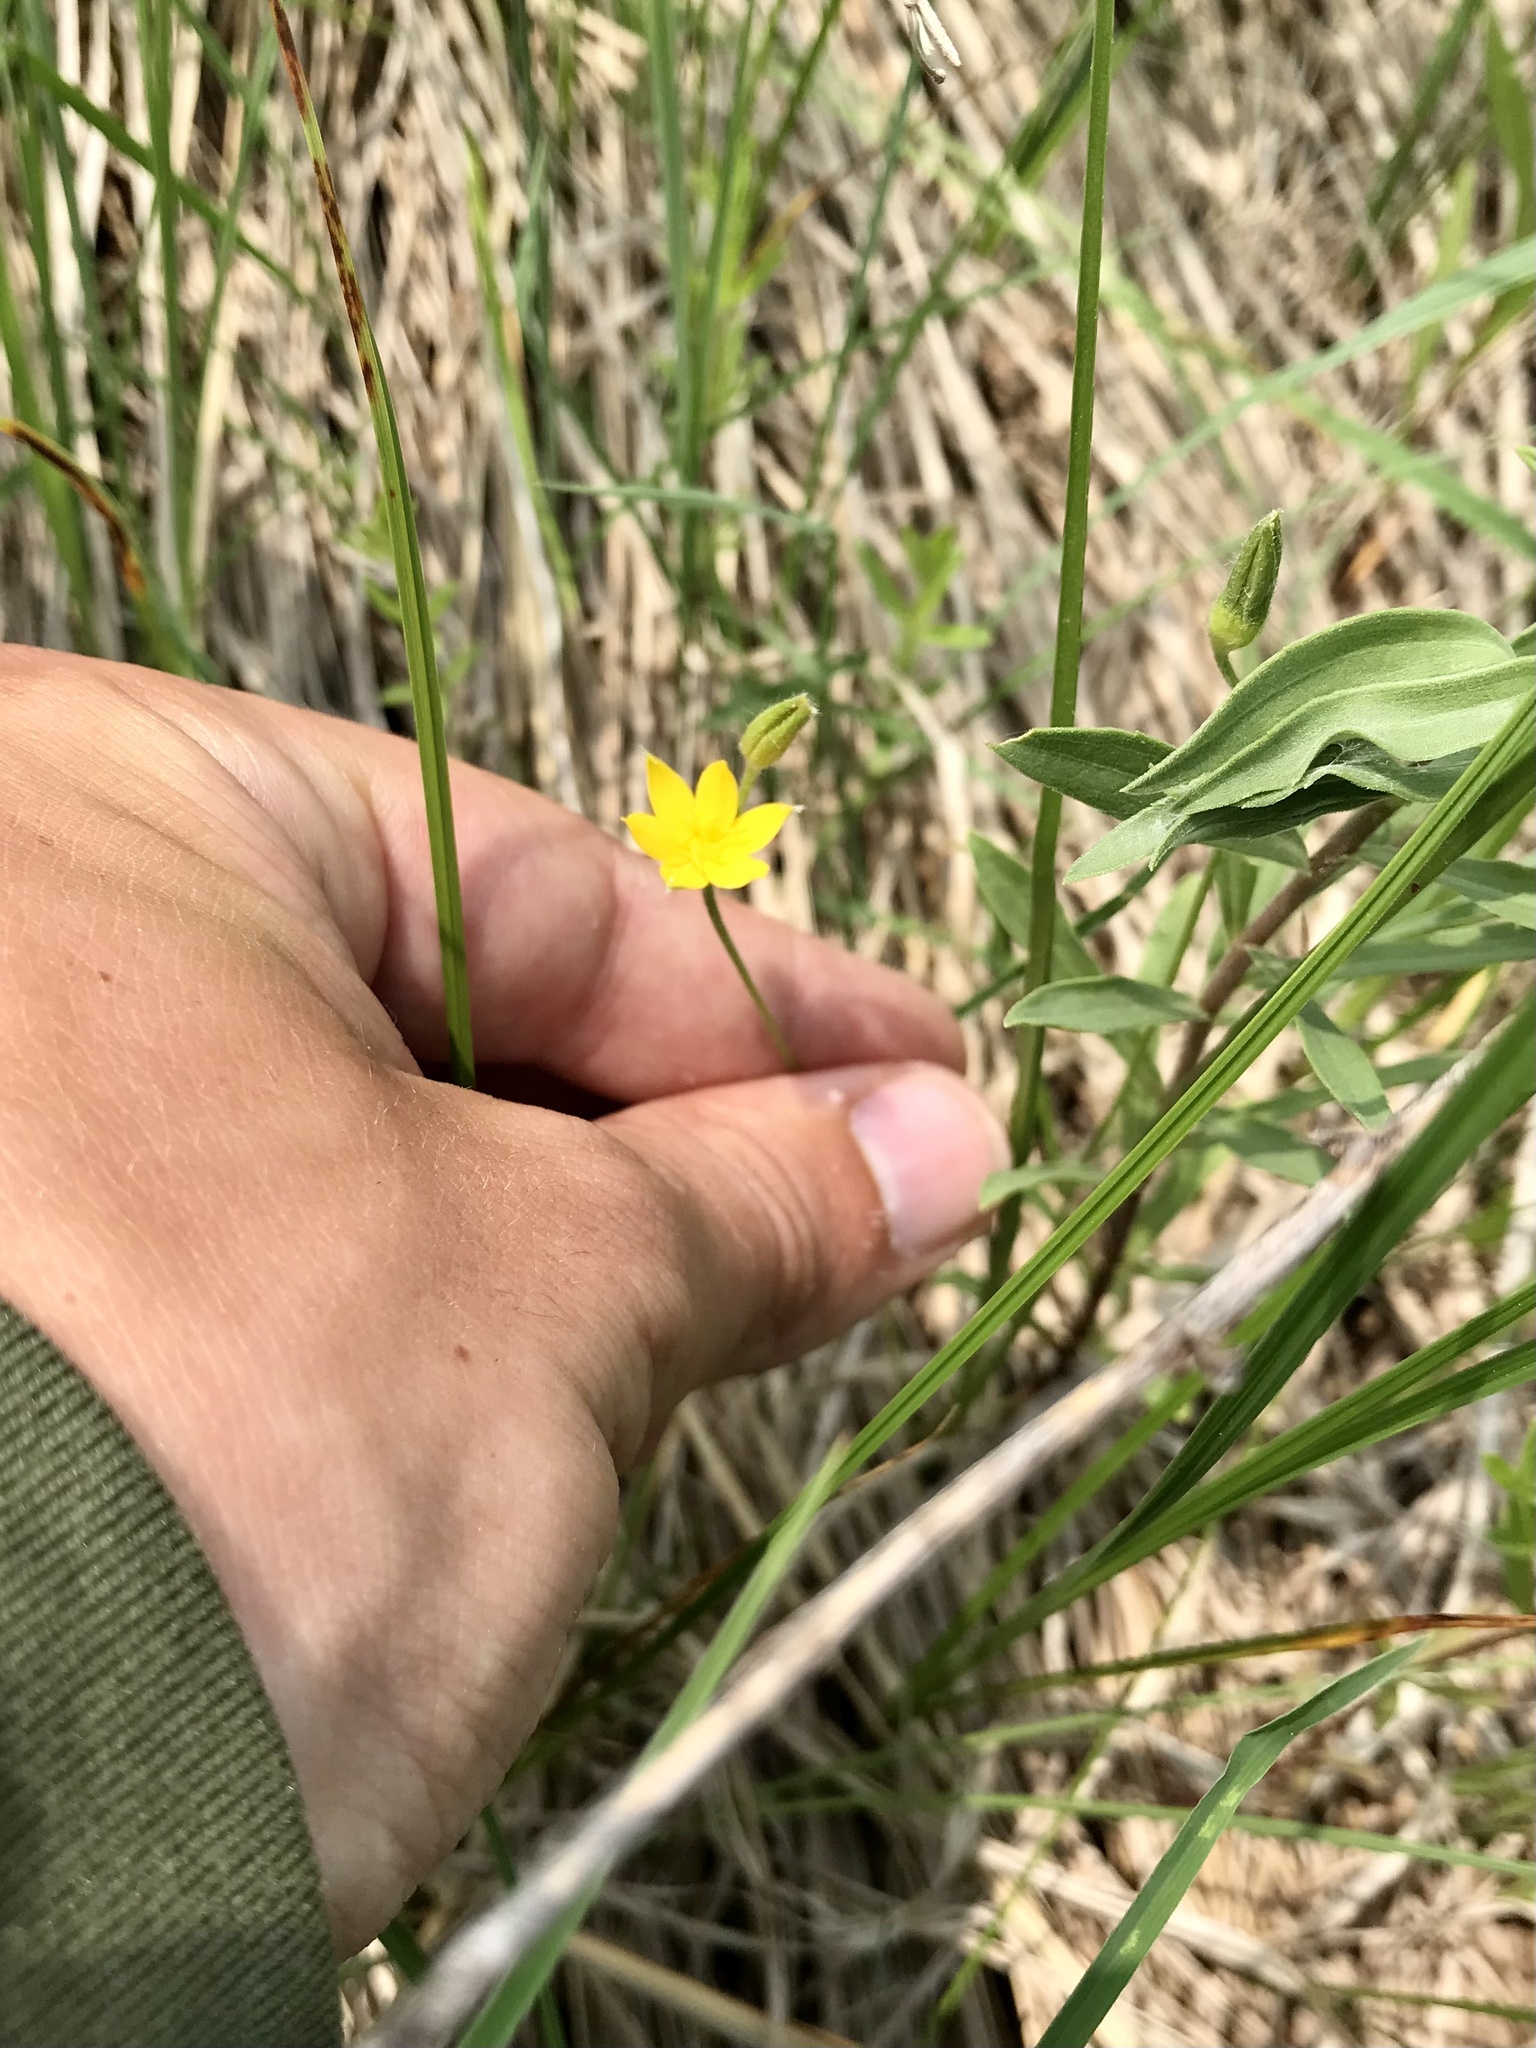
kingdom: Plantae
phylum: Tracheophyta
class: Liliopsida
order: Asparagales
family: Hypoxidaceae
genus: Hypoxis
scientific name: Hypoxis hirsuta
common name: Common goldstar
